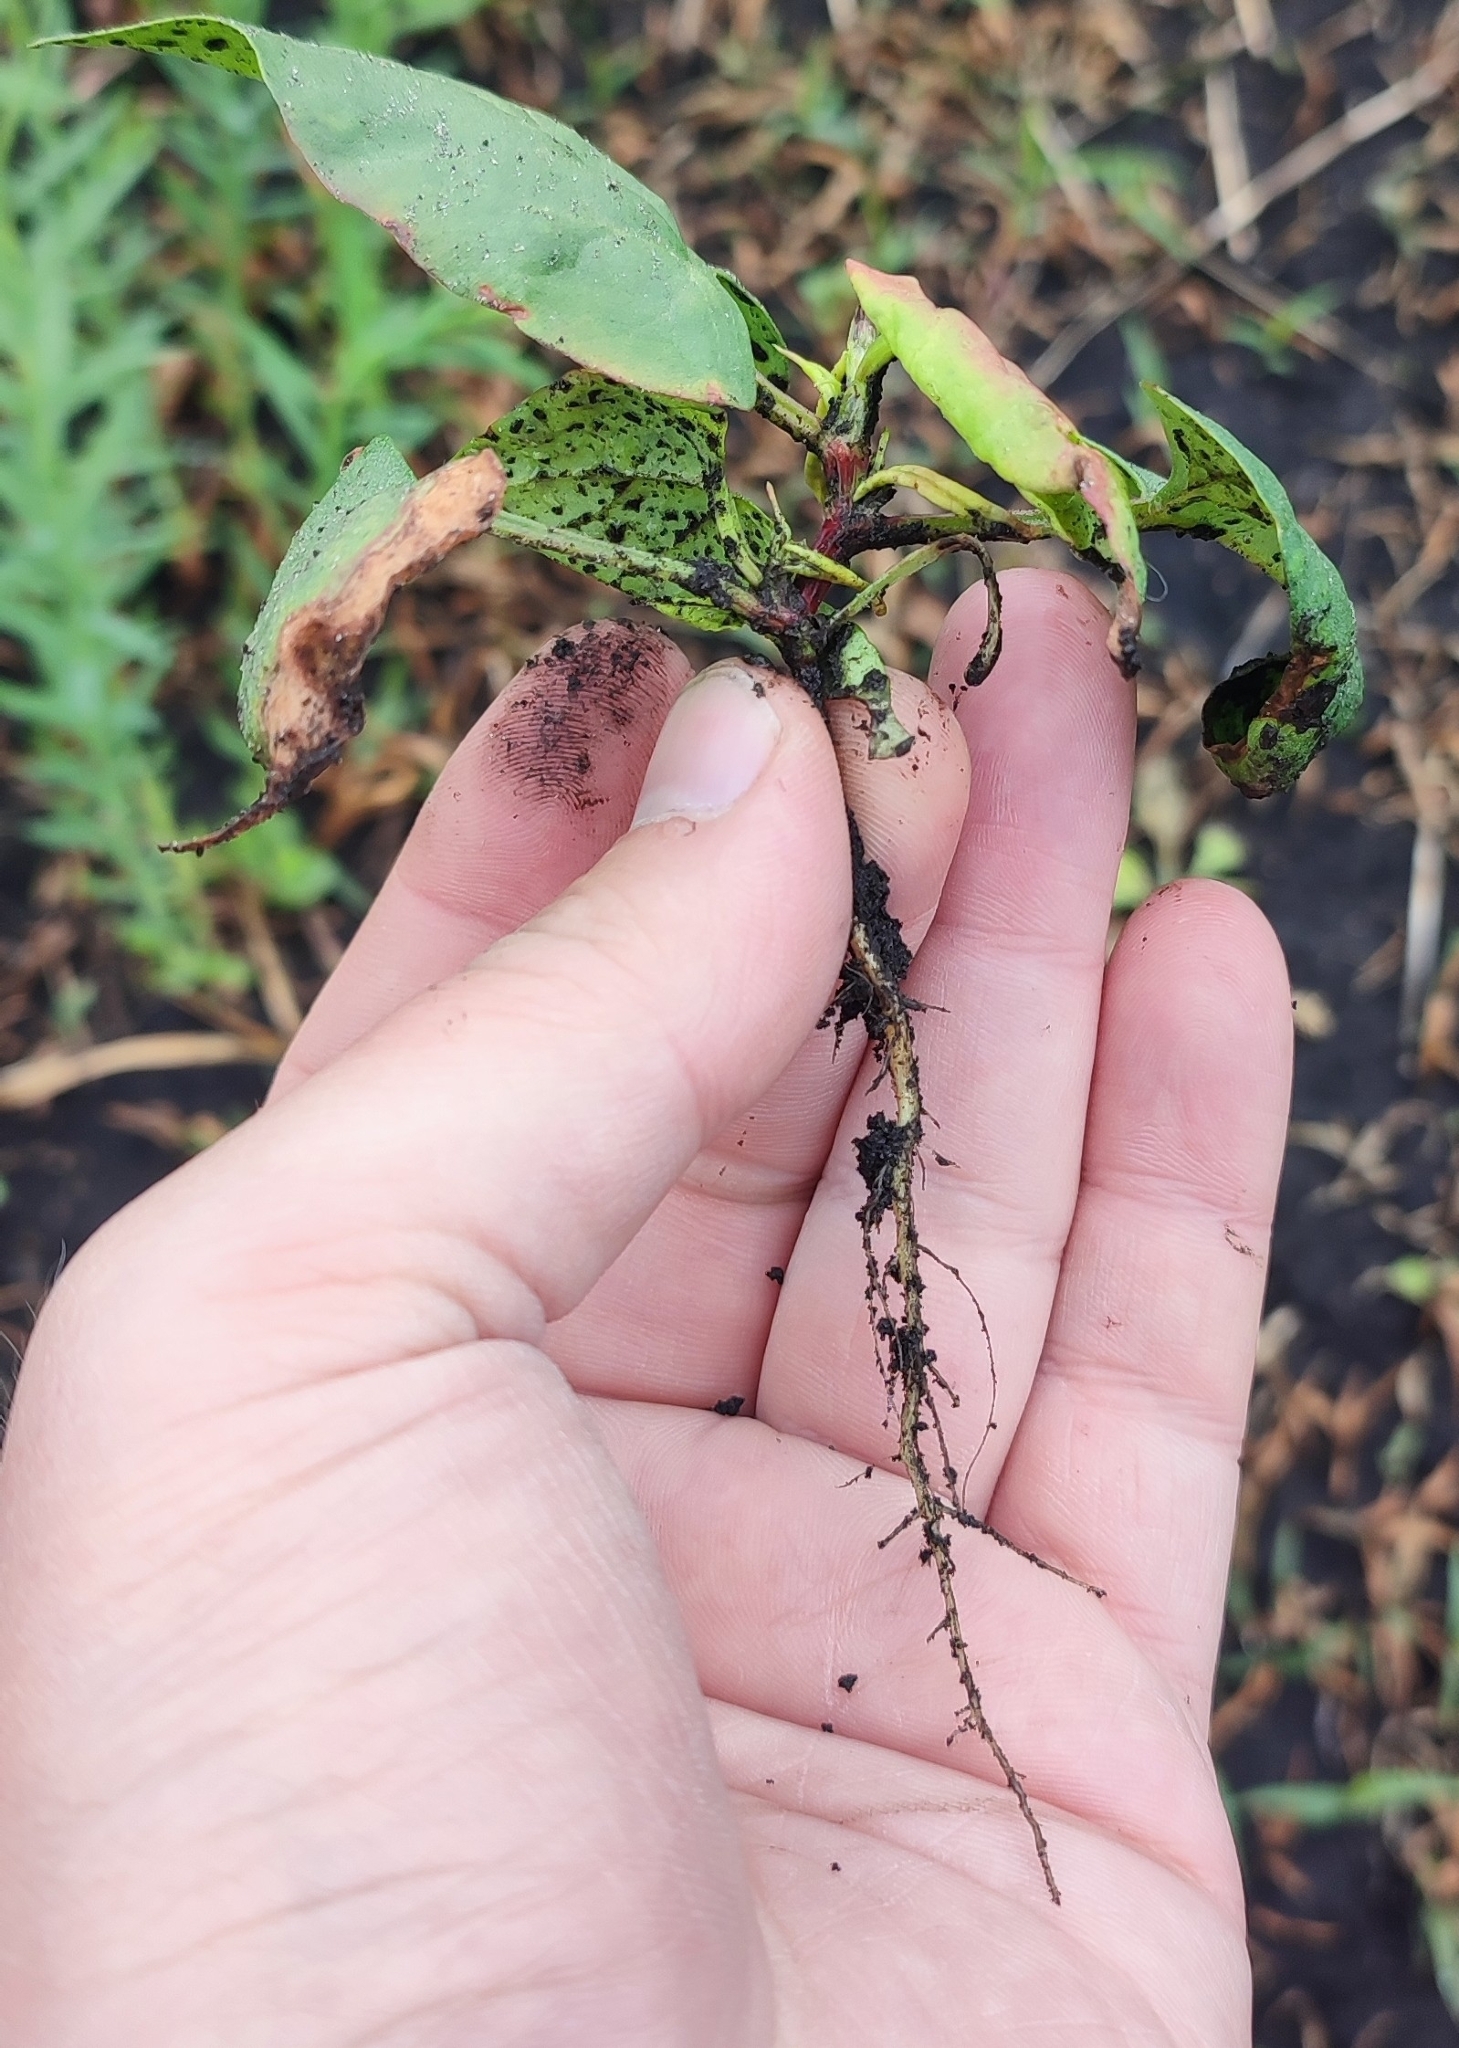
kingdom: Plantae
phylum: Tracheophyta
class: Magnoliopsida
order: Caryophyllales
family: Polygonaceae
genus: Fallopia
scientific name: Fallopia convolvulus
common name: Black bindweed
